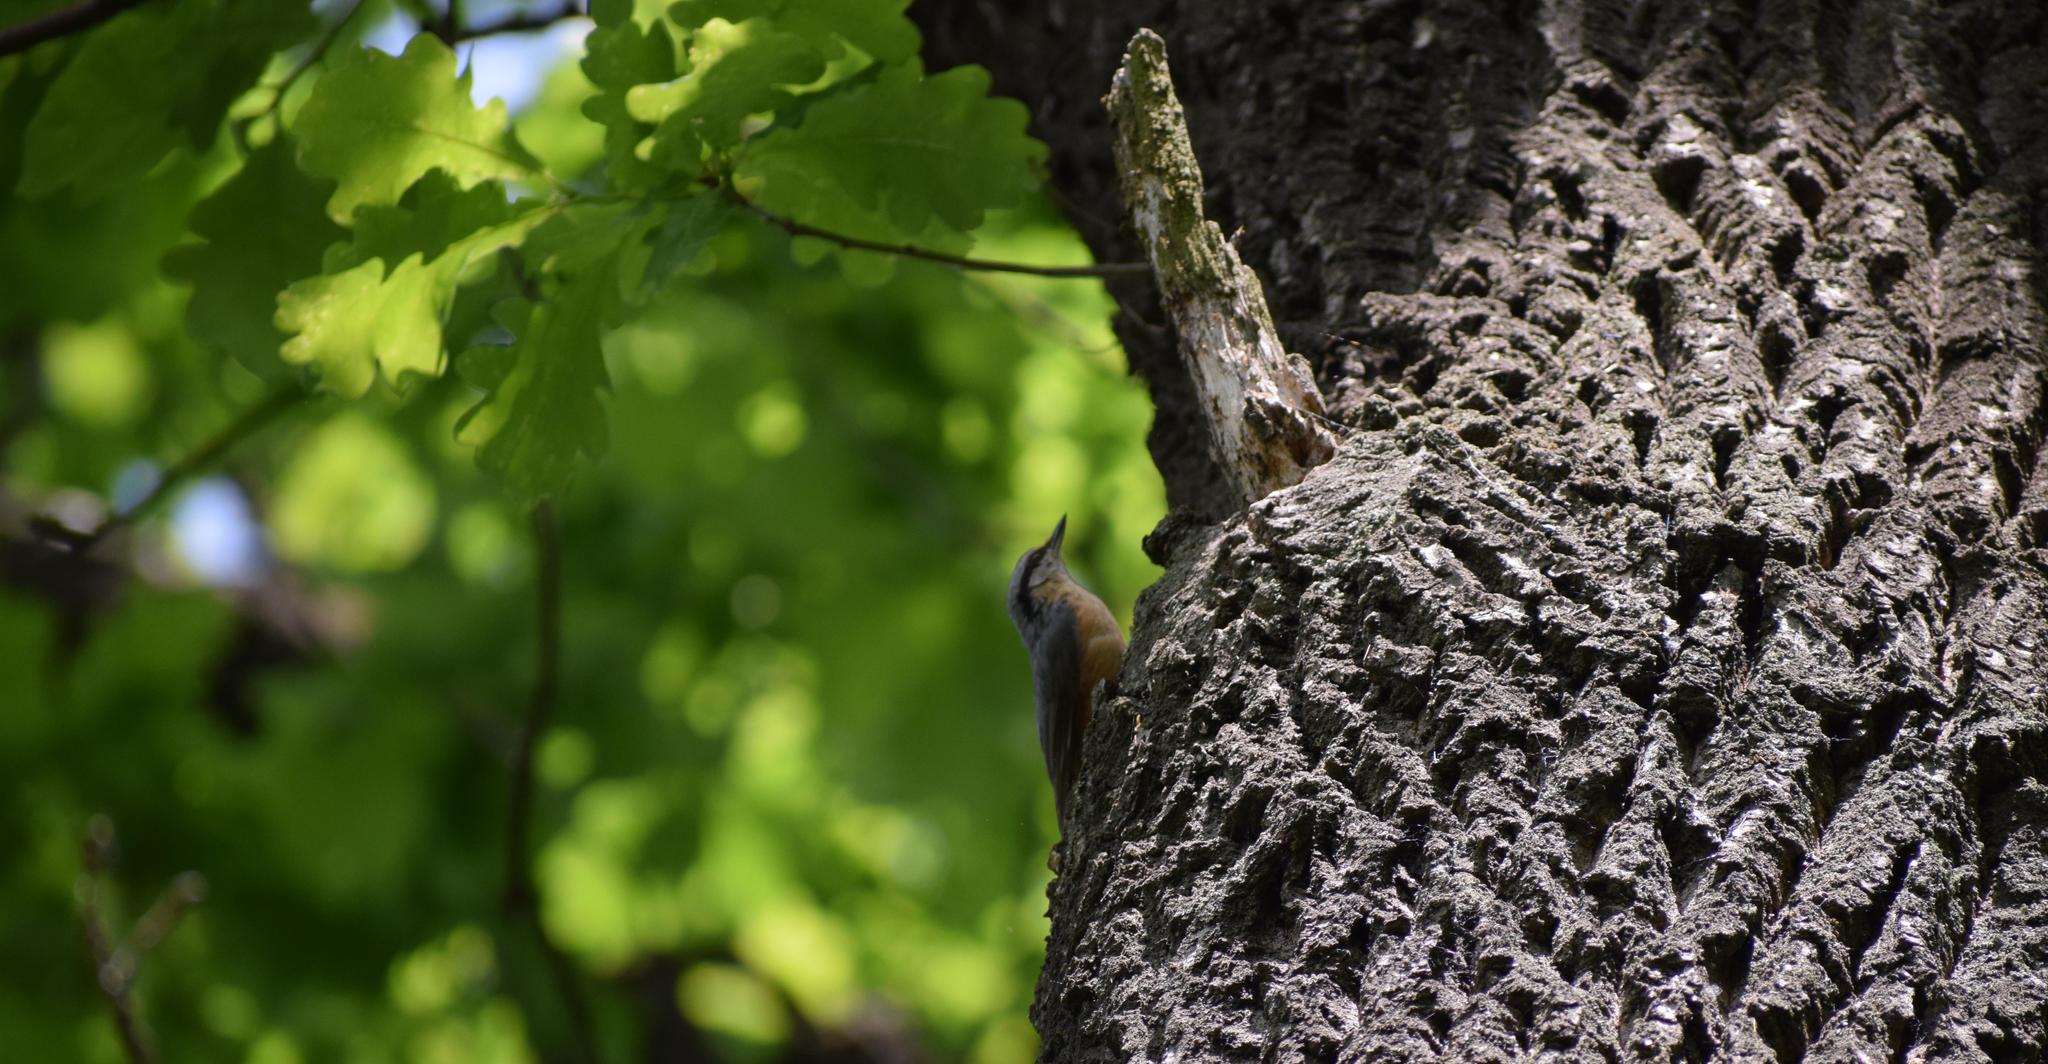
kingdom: Animalia
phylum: Chordata
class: Aves
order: Passeriformes
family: Sittidae
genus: Sitta
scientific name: Sitta europaea
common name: Eurasian nuthatch
